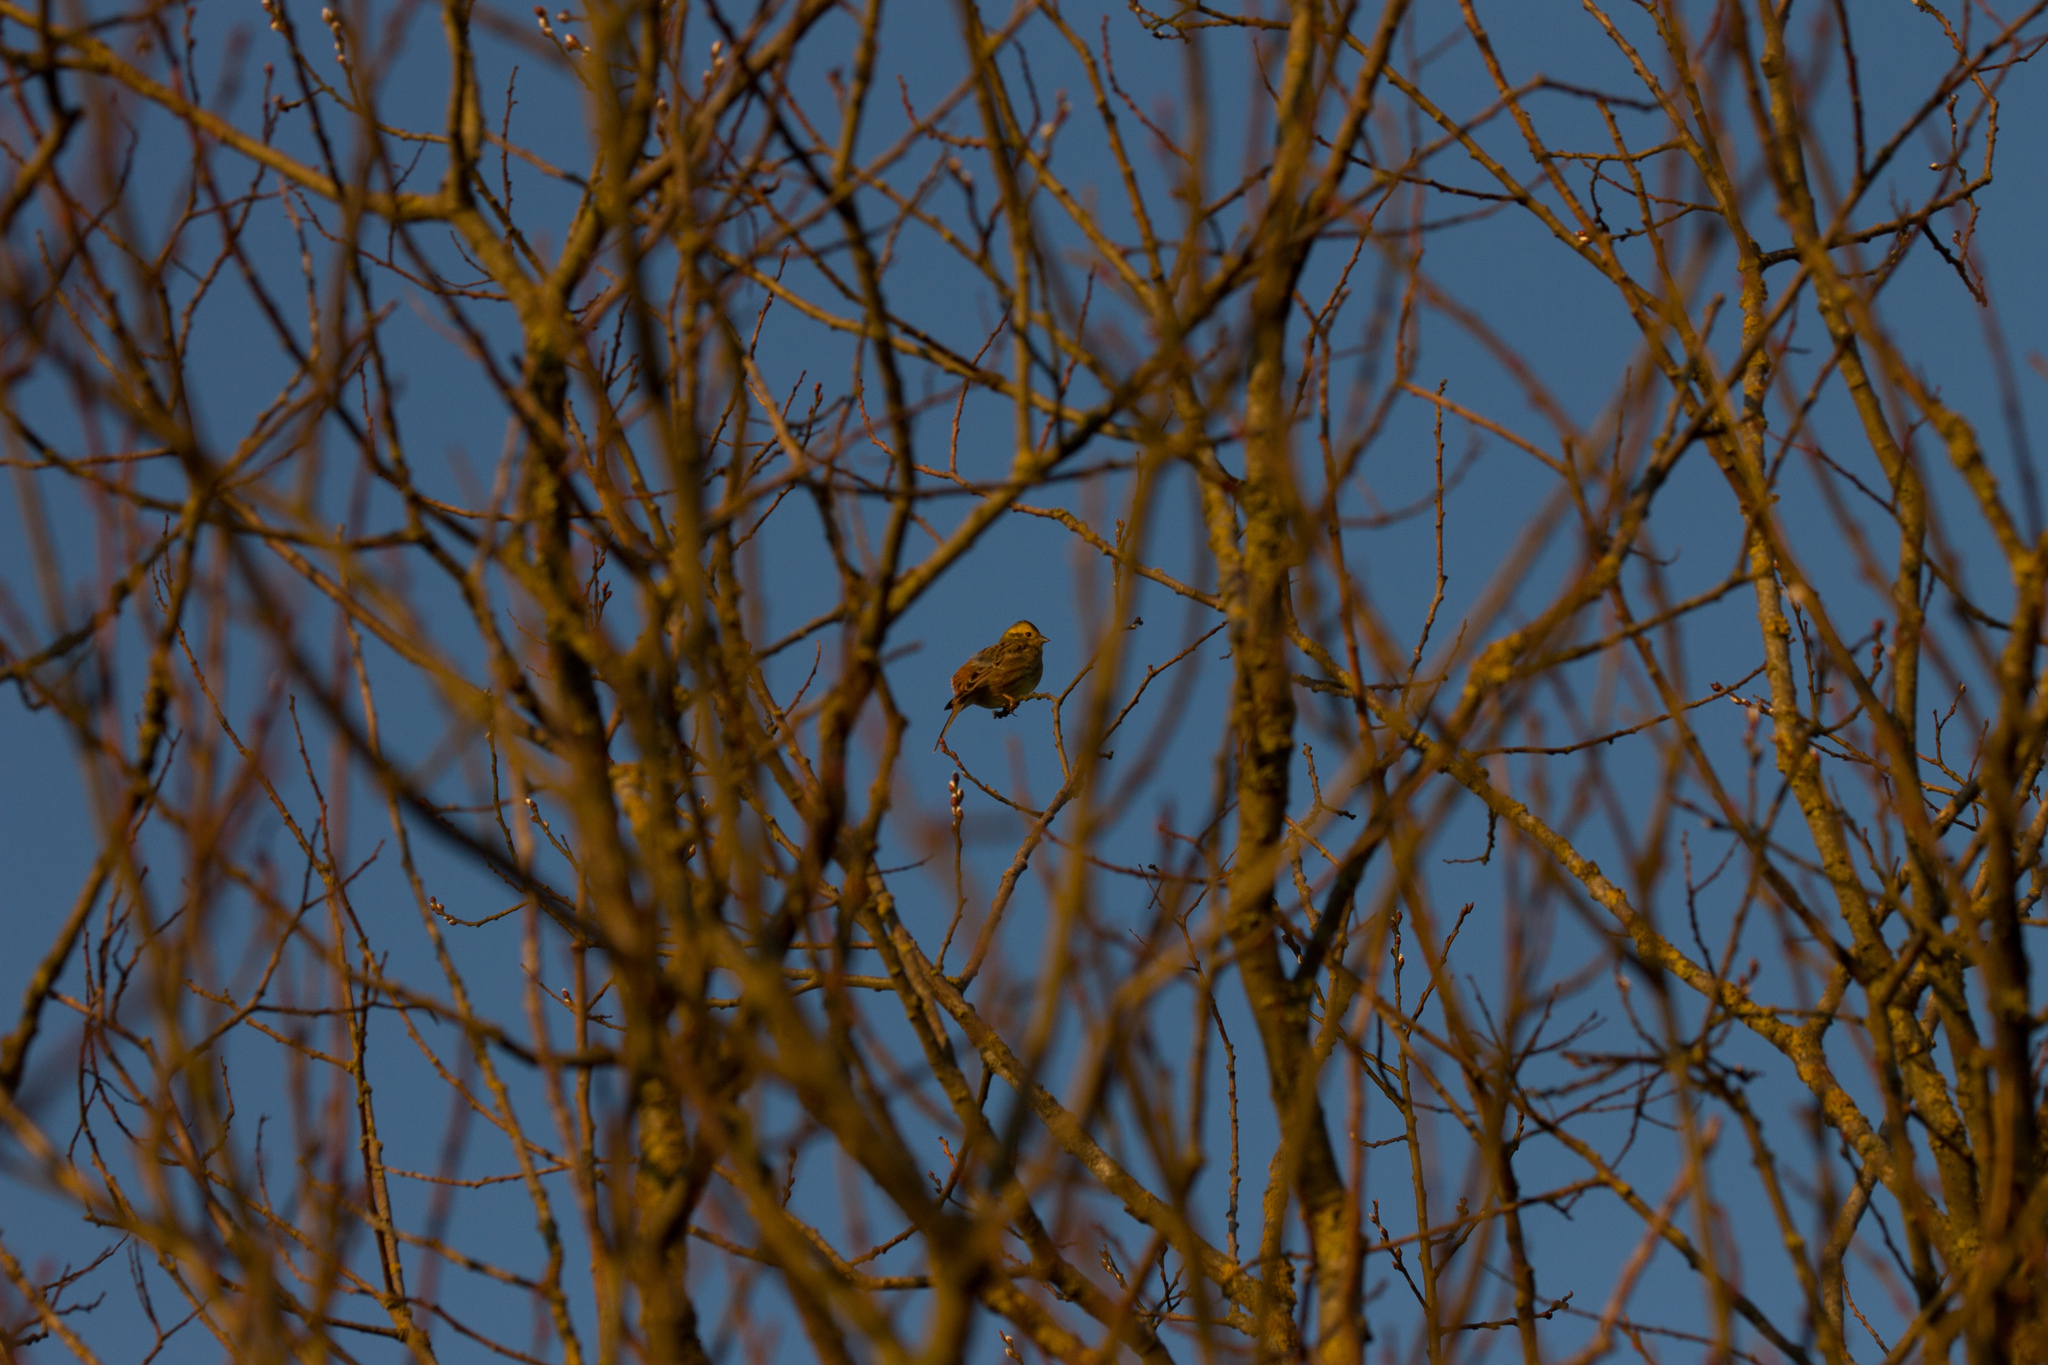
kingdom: Animalia
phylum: Chordata
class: Aves
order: Passeriformes
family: Emberizidae
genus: Emberiza
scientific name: Emberiza citrinella
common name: Yellowhammer
